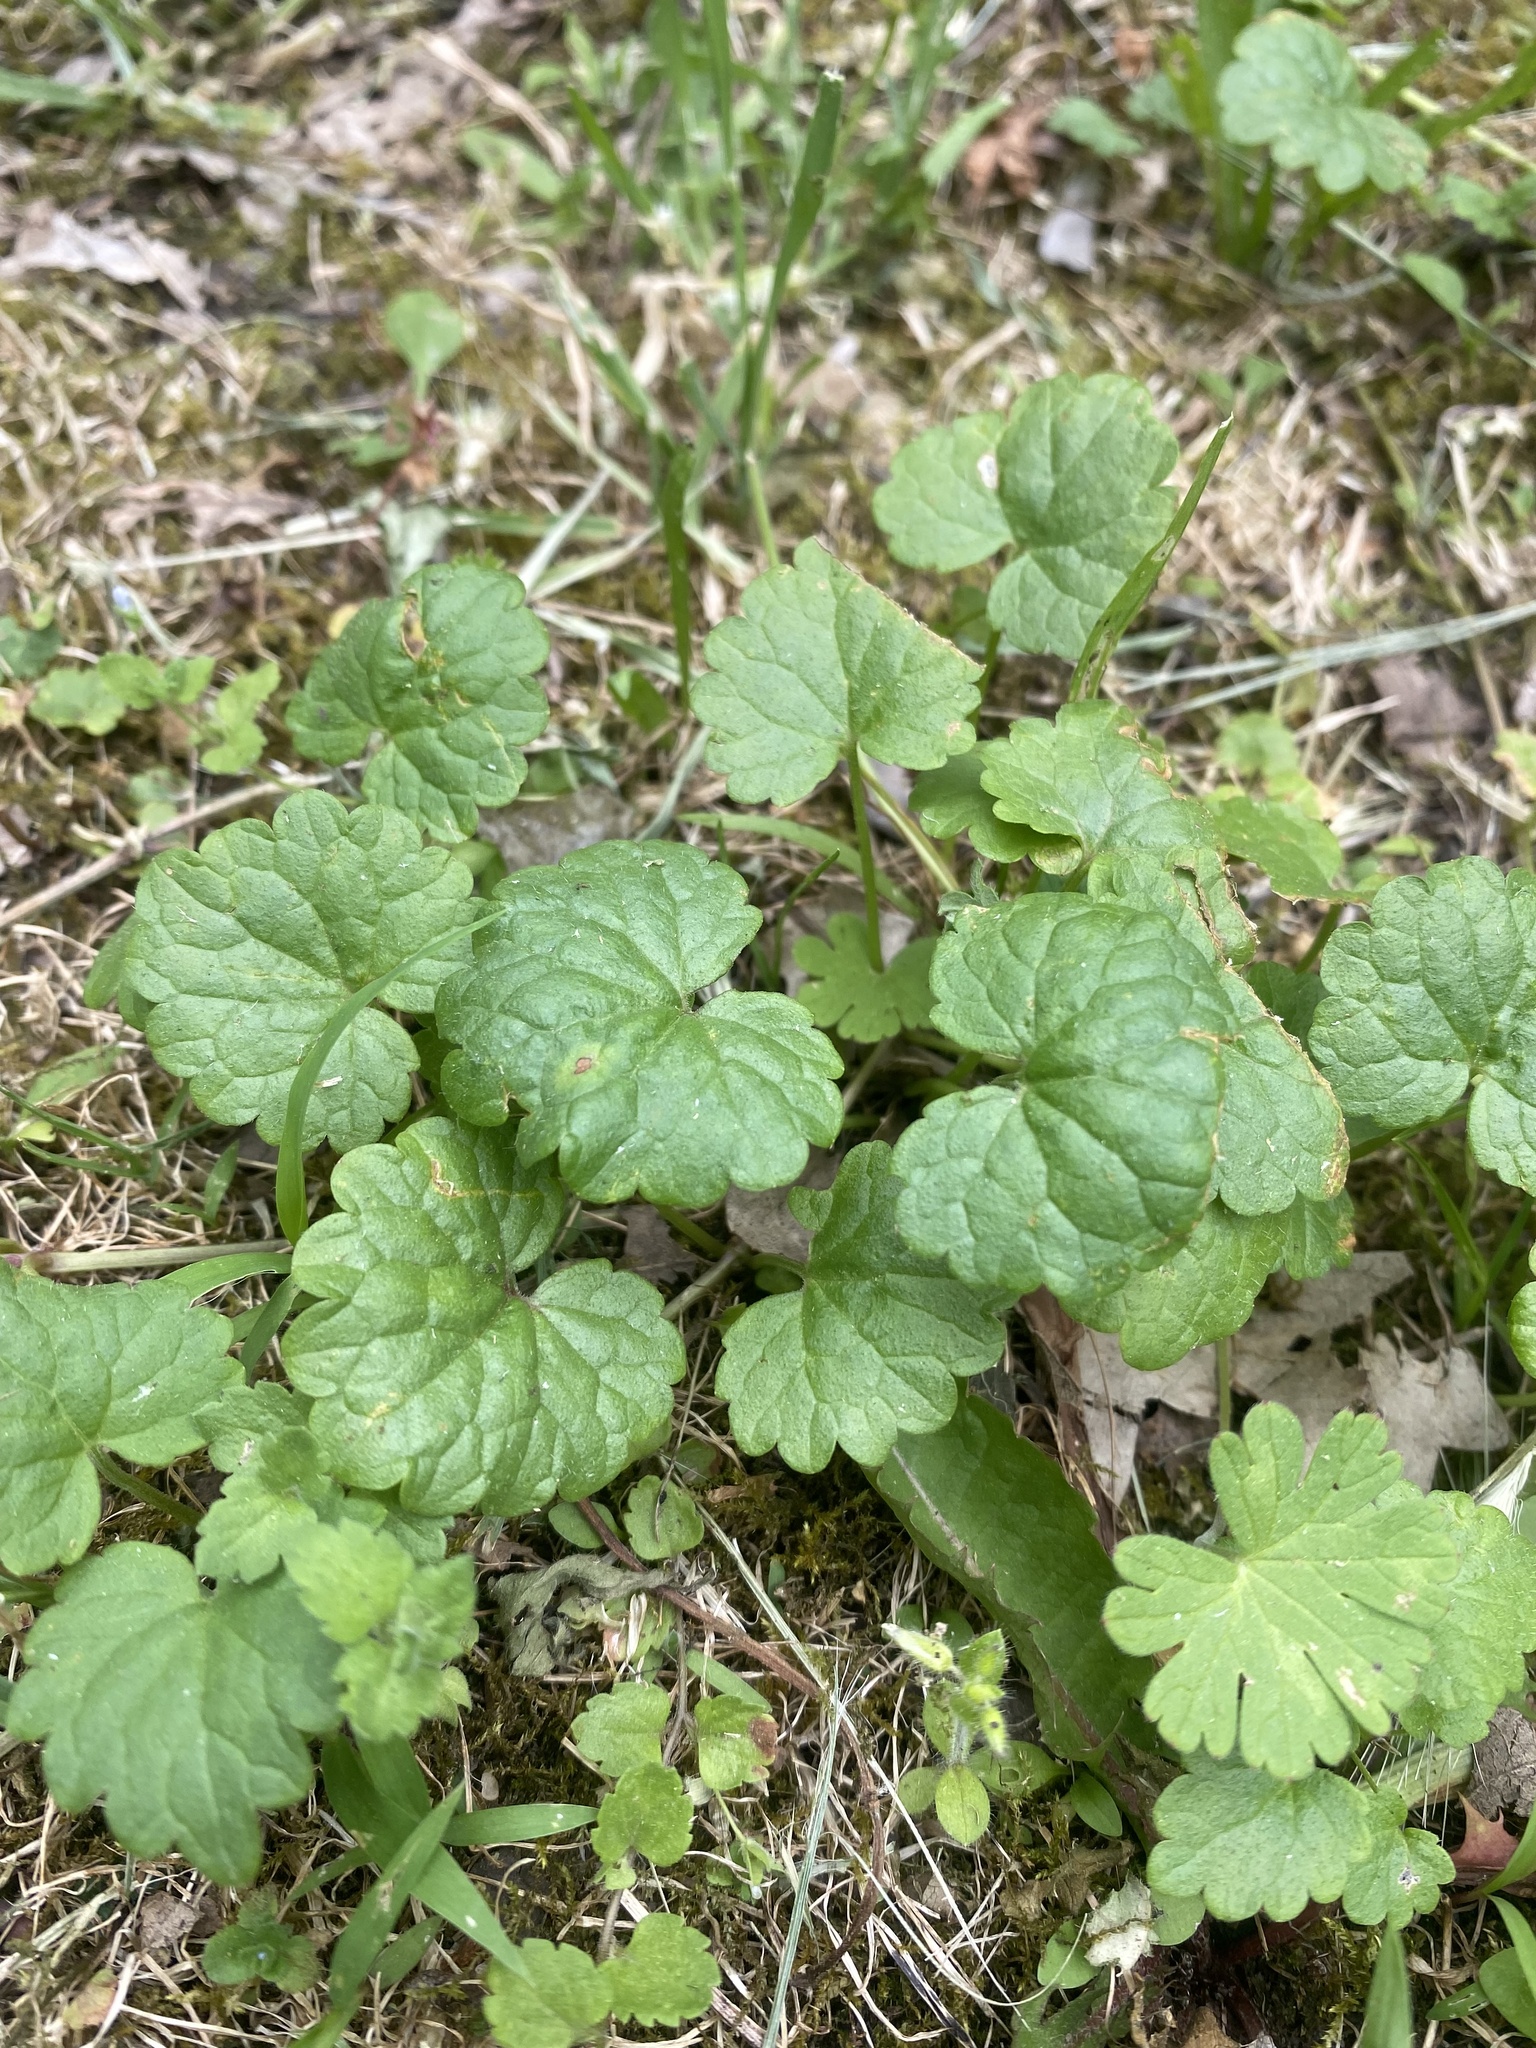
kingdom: Plantae
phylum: Tracheophyta
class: Magnoliopsida
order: Lamiales
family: Lamiaceae
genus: Glechoma
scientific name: Glechoma hederacea
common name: Ground ivy
